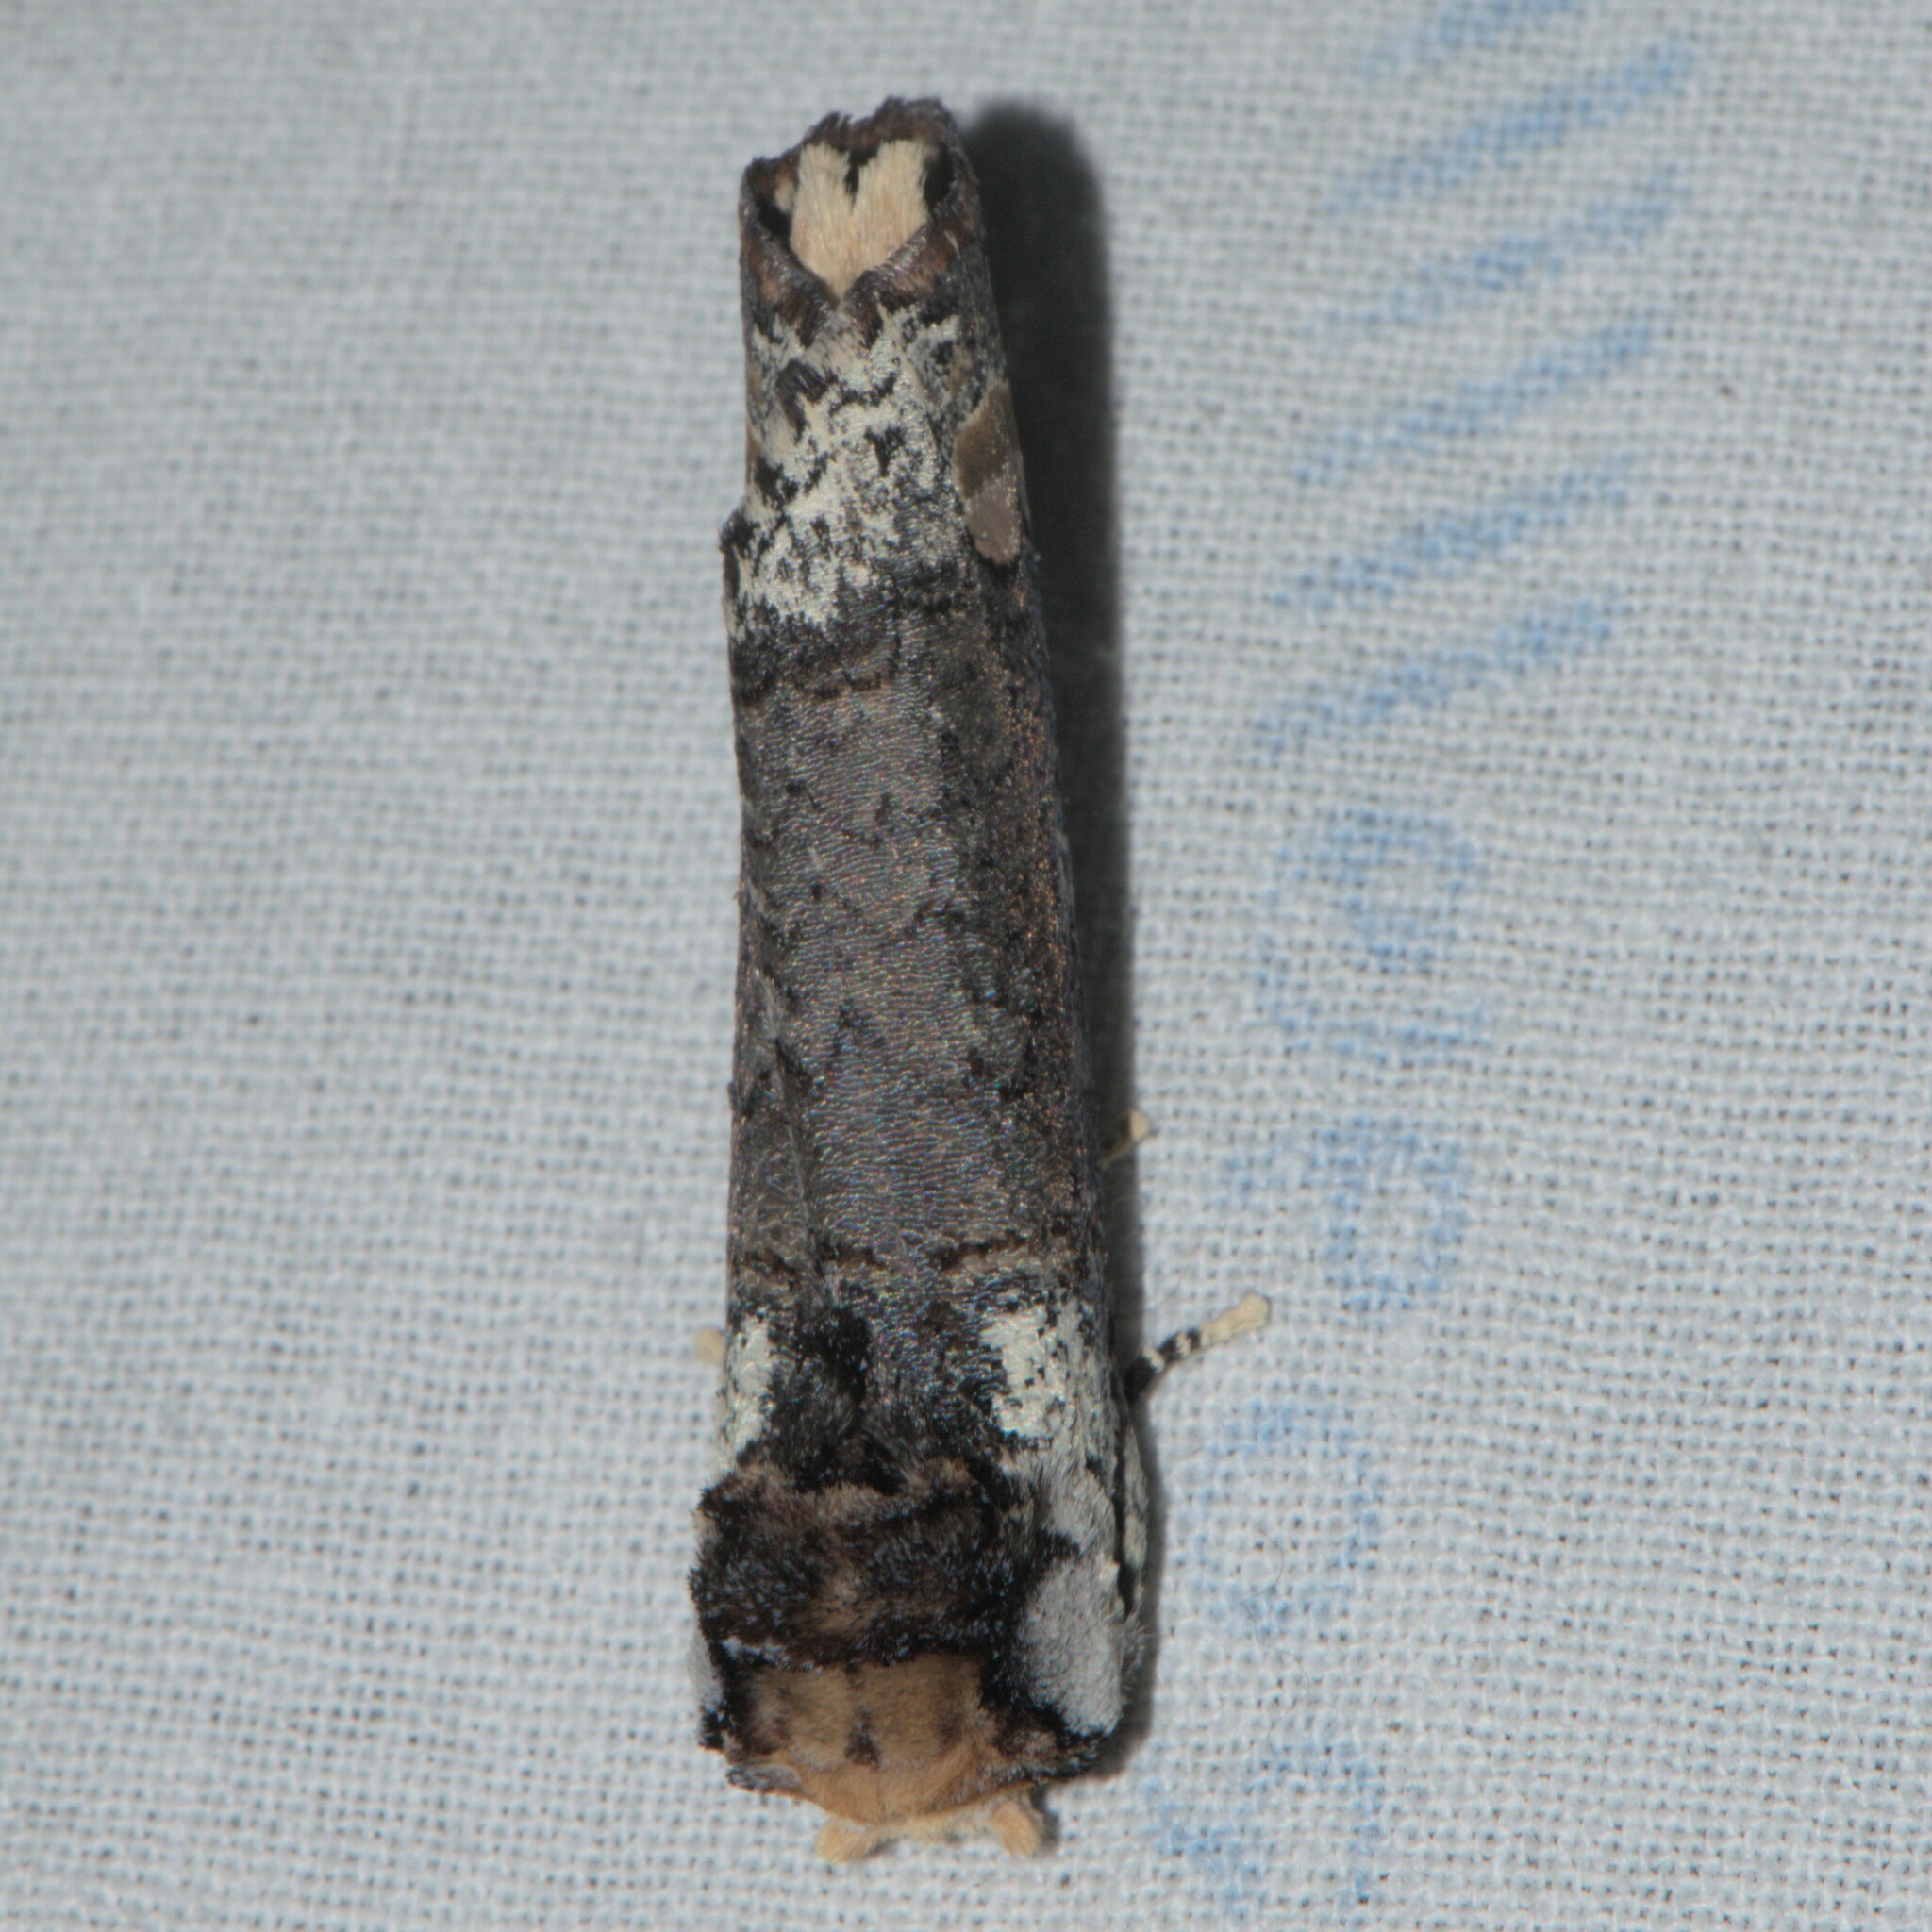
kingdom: Animalia
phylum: Arthropoda
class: Insecta
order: Lepidoptera
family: Notodontidae
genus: Phalera
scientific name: Phalera parivala
